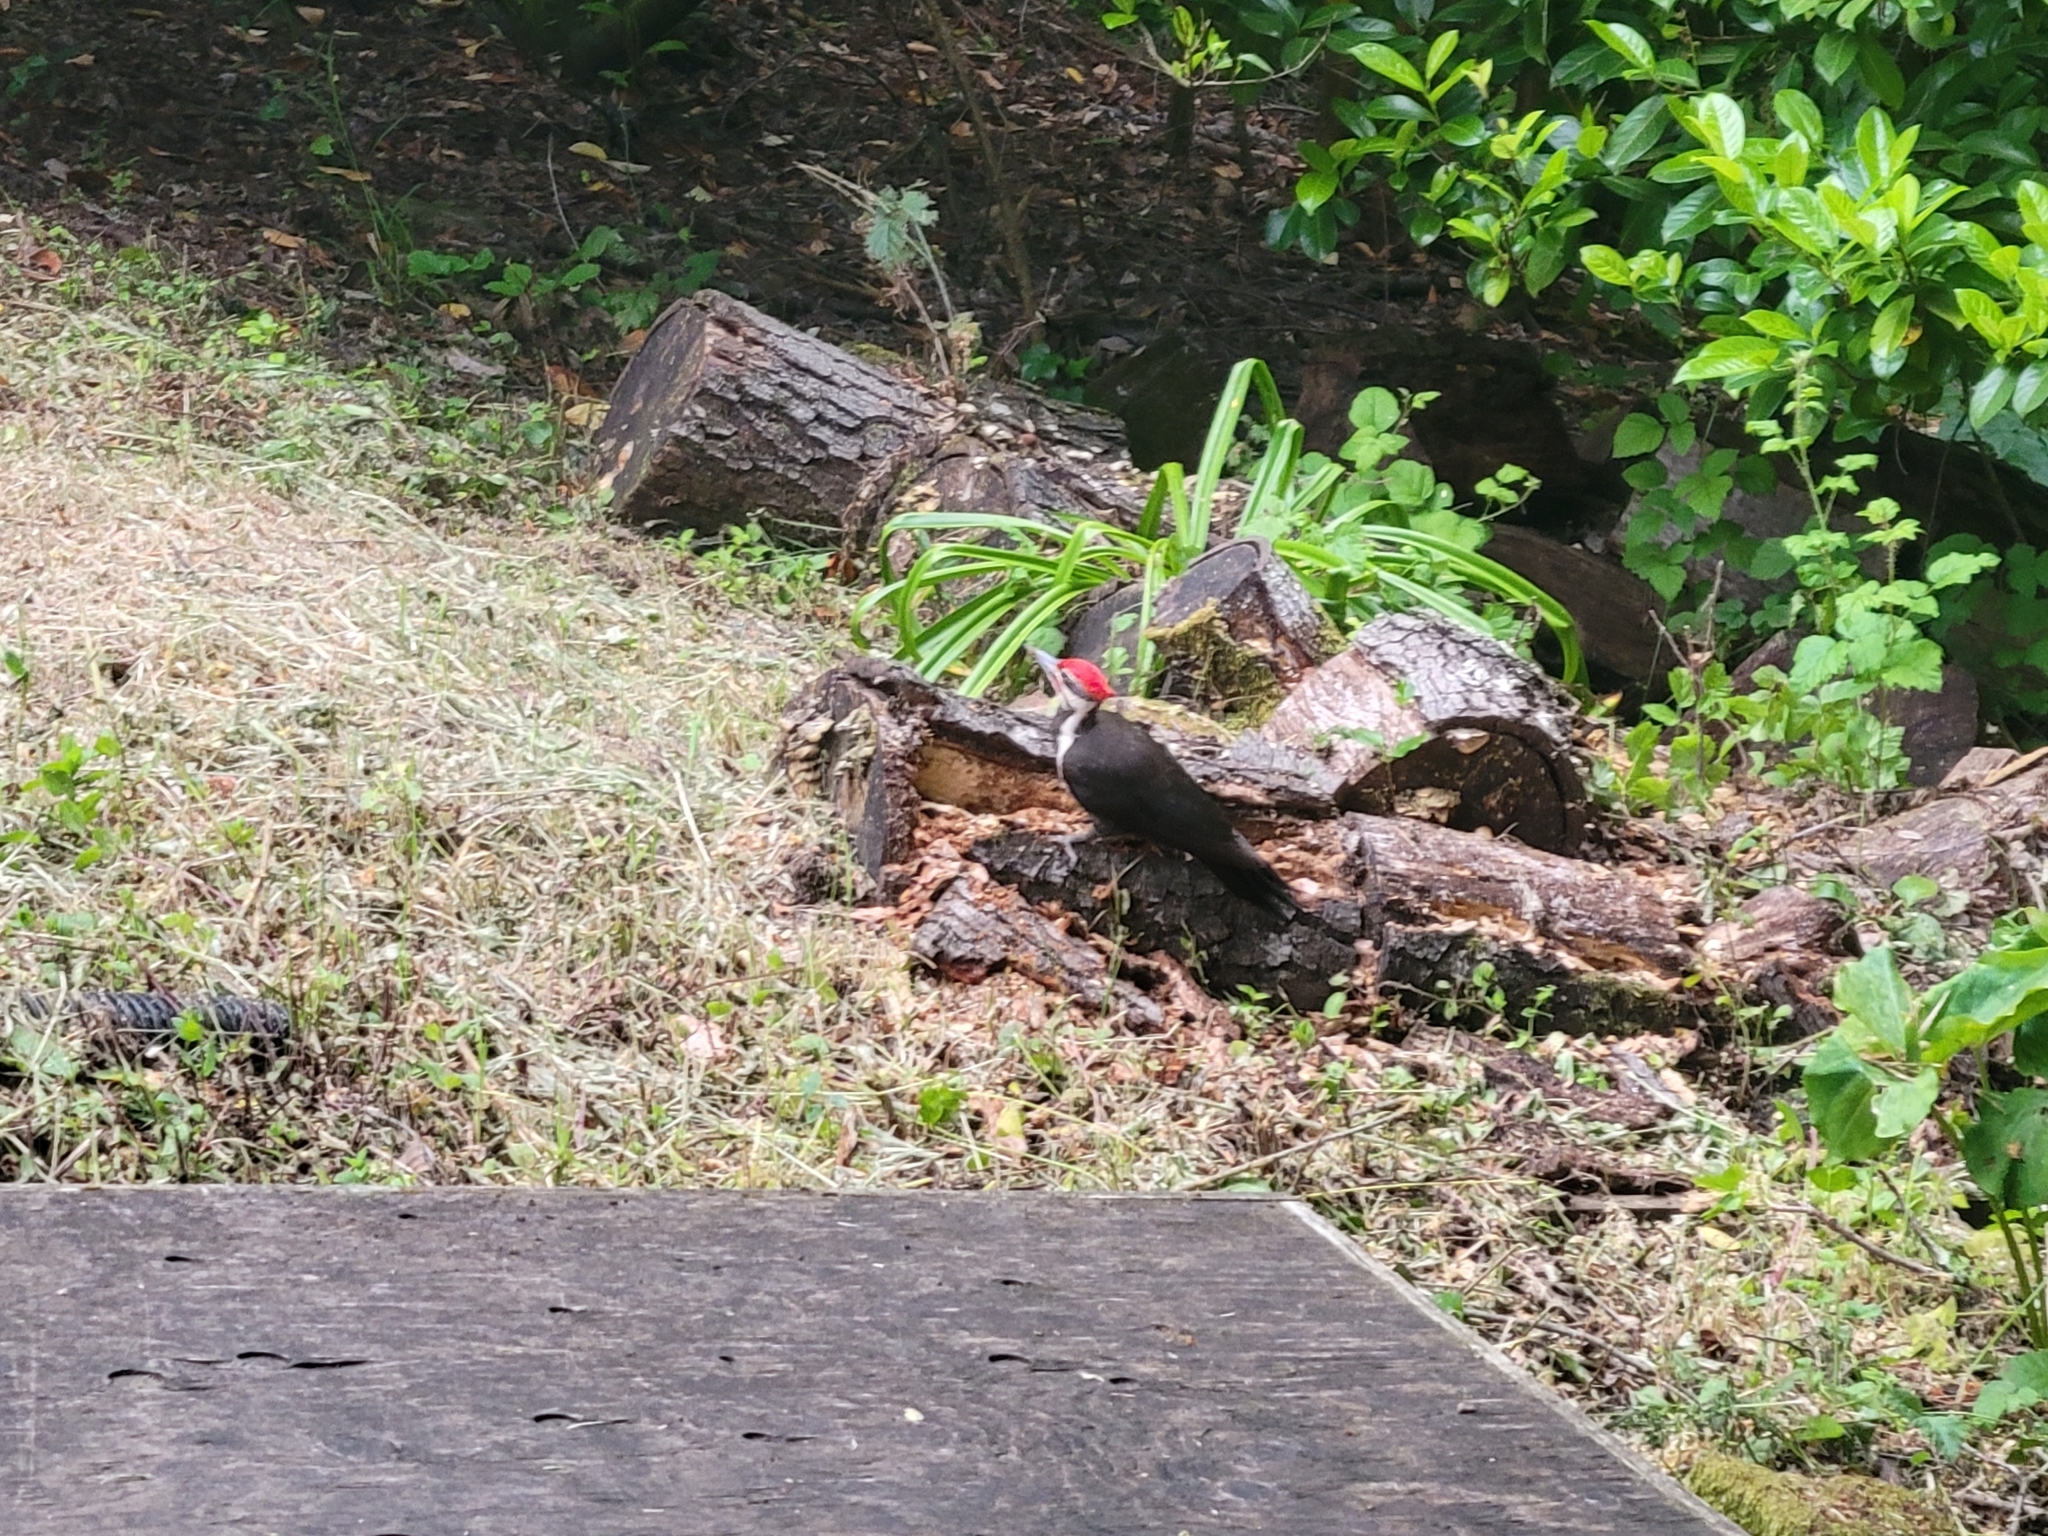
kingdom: Animalia
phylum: Chordata
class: Aves
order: Piciformes
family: Picidae
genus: Dryocopus
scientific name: Dryocopus pileatus
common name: Pileated woodpecker
